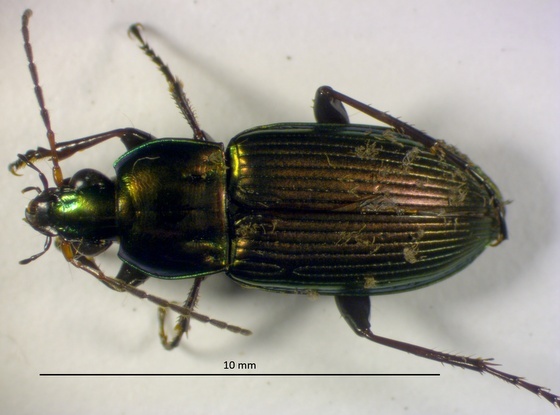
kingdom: Animalia
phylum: Arthropoda
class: Insecta
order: Coleoptera
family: Carabidae
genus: Poecilus
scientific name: Poecilus chalcites
